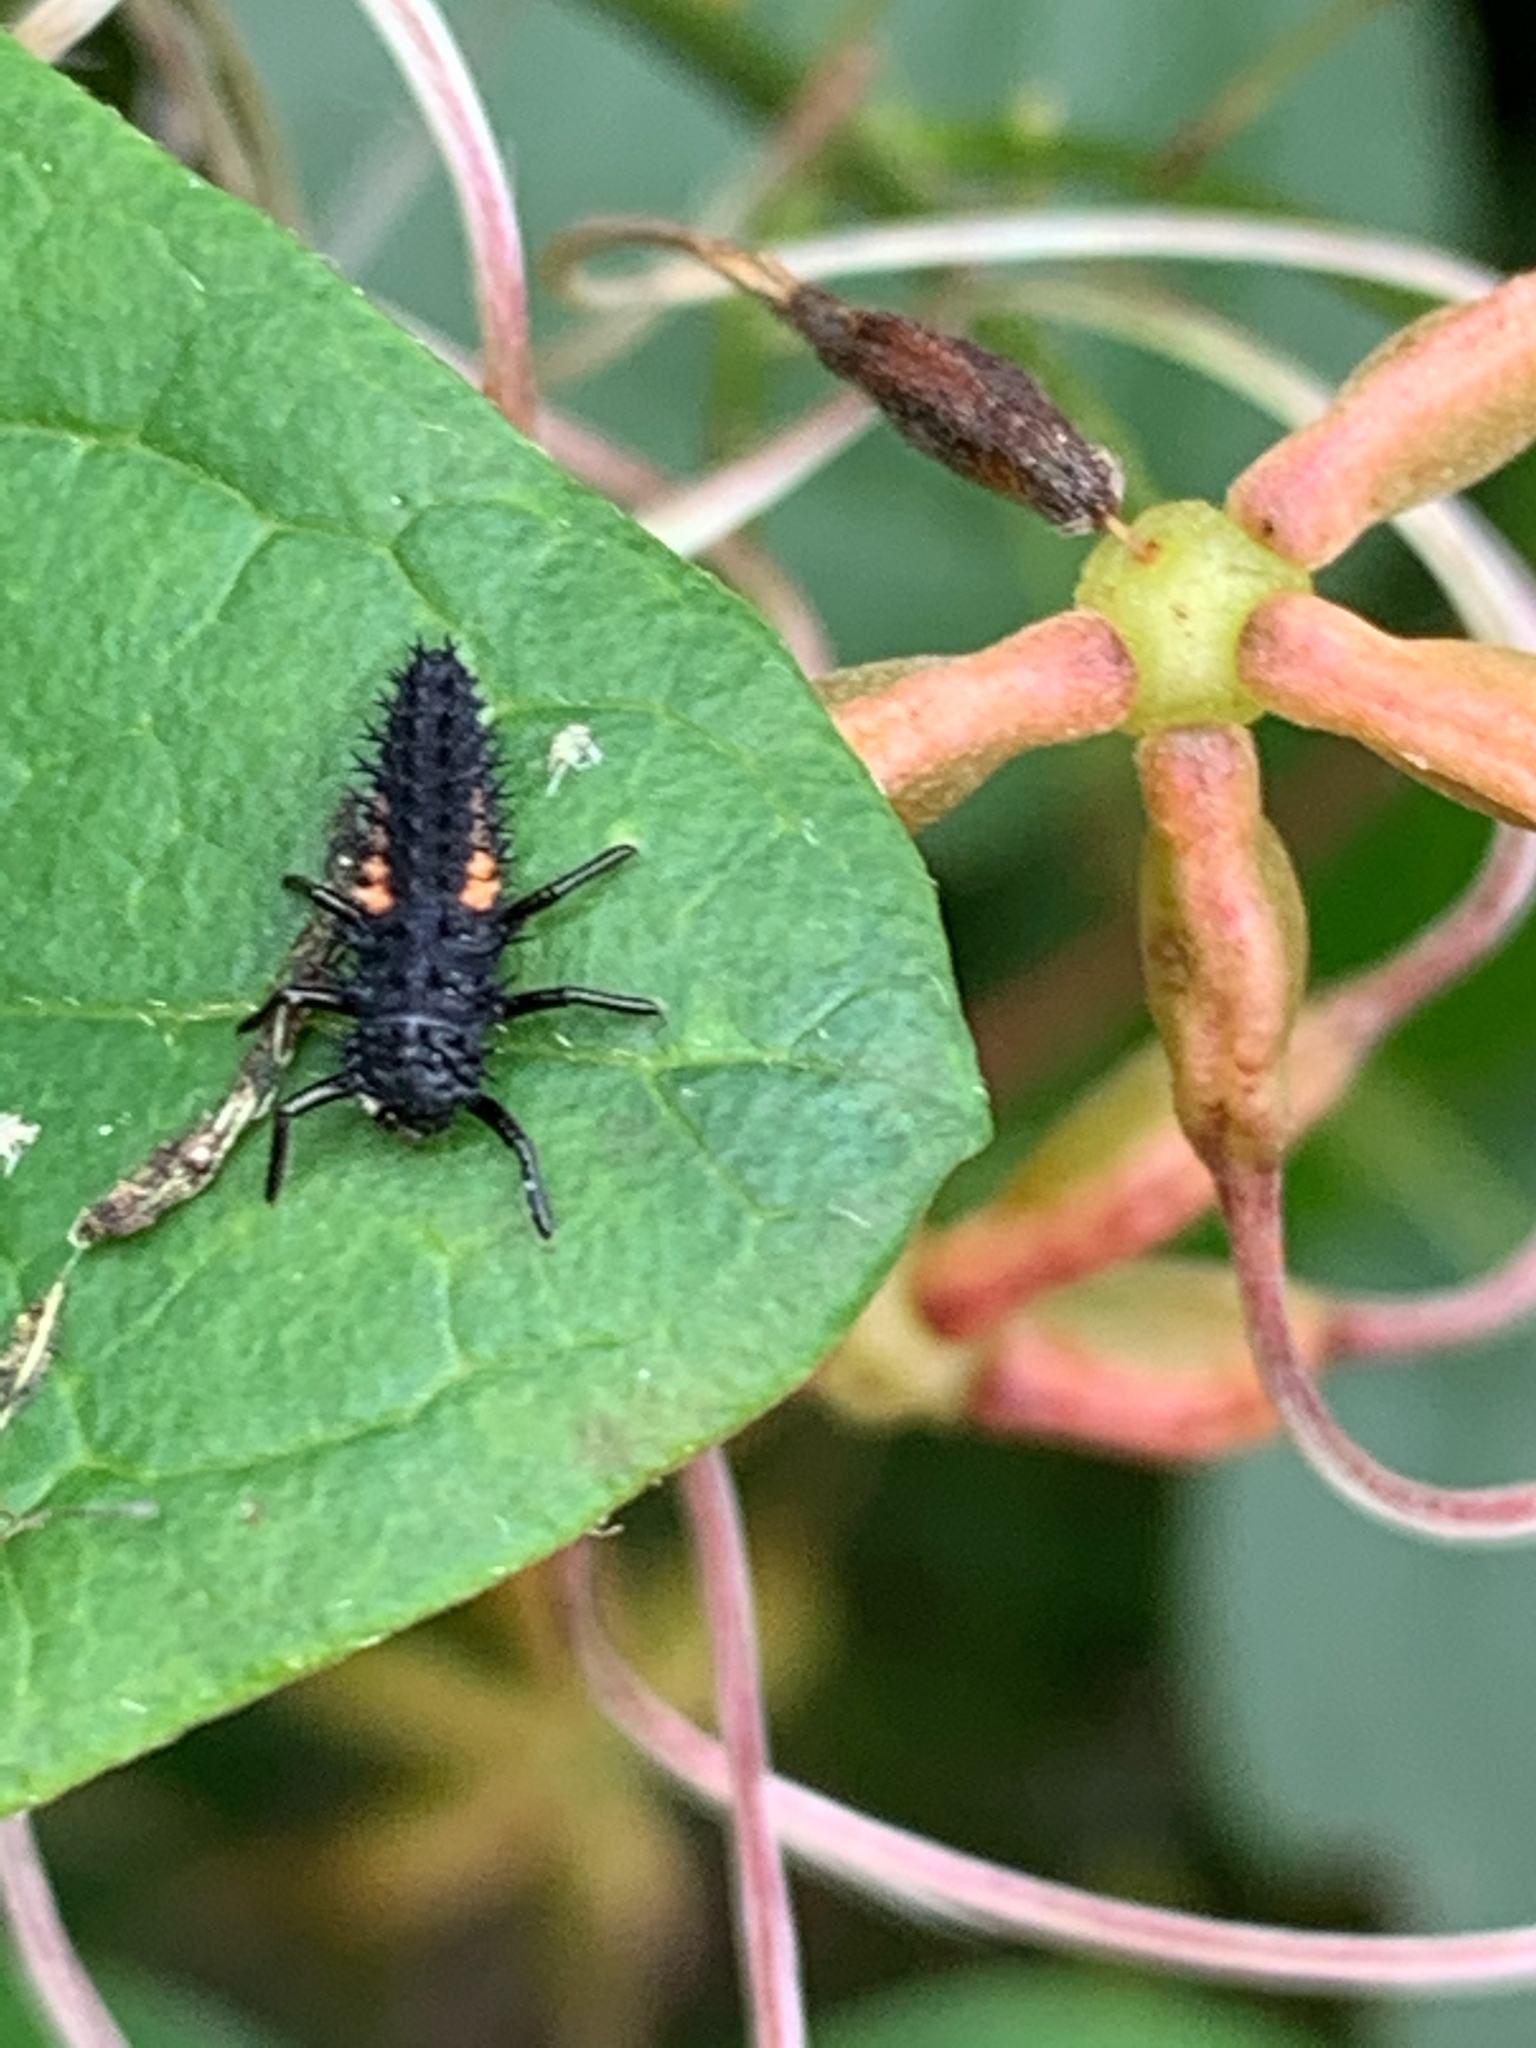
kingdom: Animalia
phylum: Arthropoda
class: Insecta
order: Coleoptera
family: Coccinellidae
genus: Harmonia
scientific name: Harmonia axyridis
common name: Harlequin ladybird
